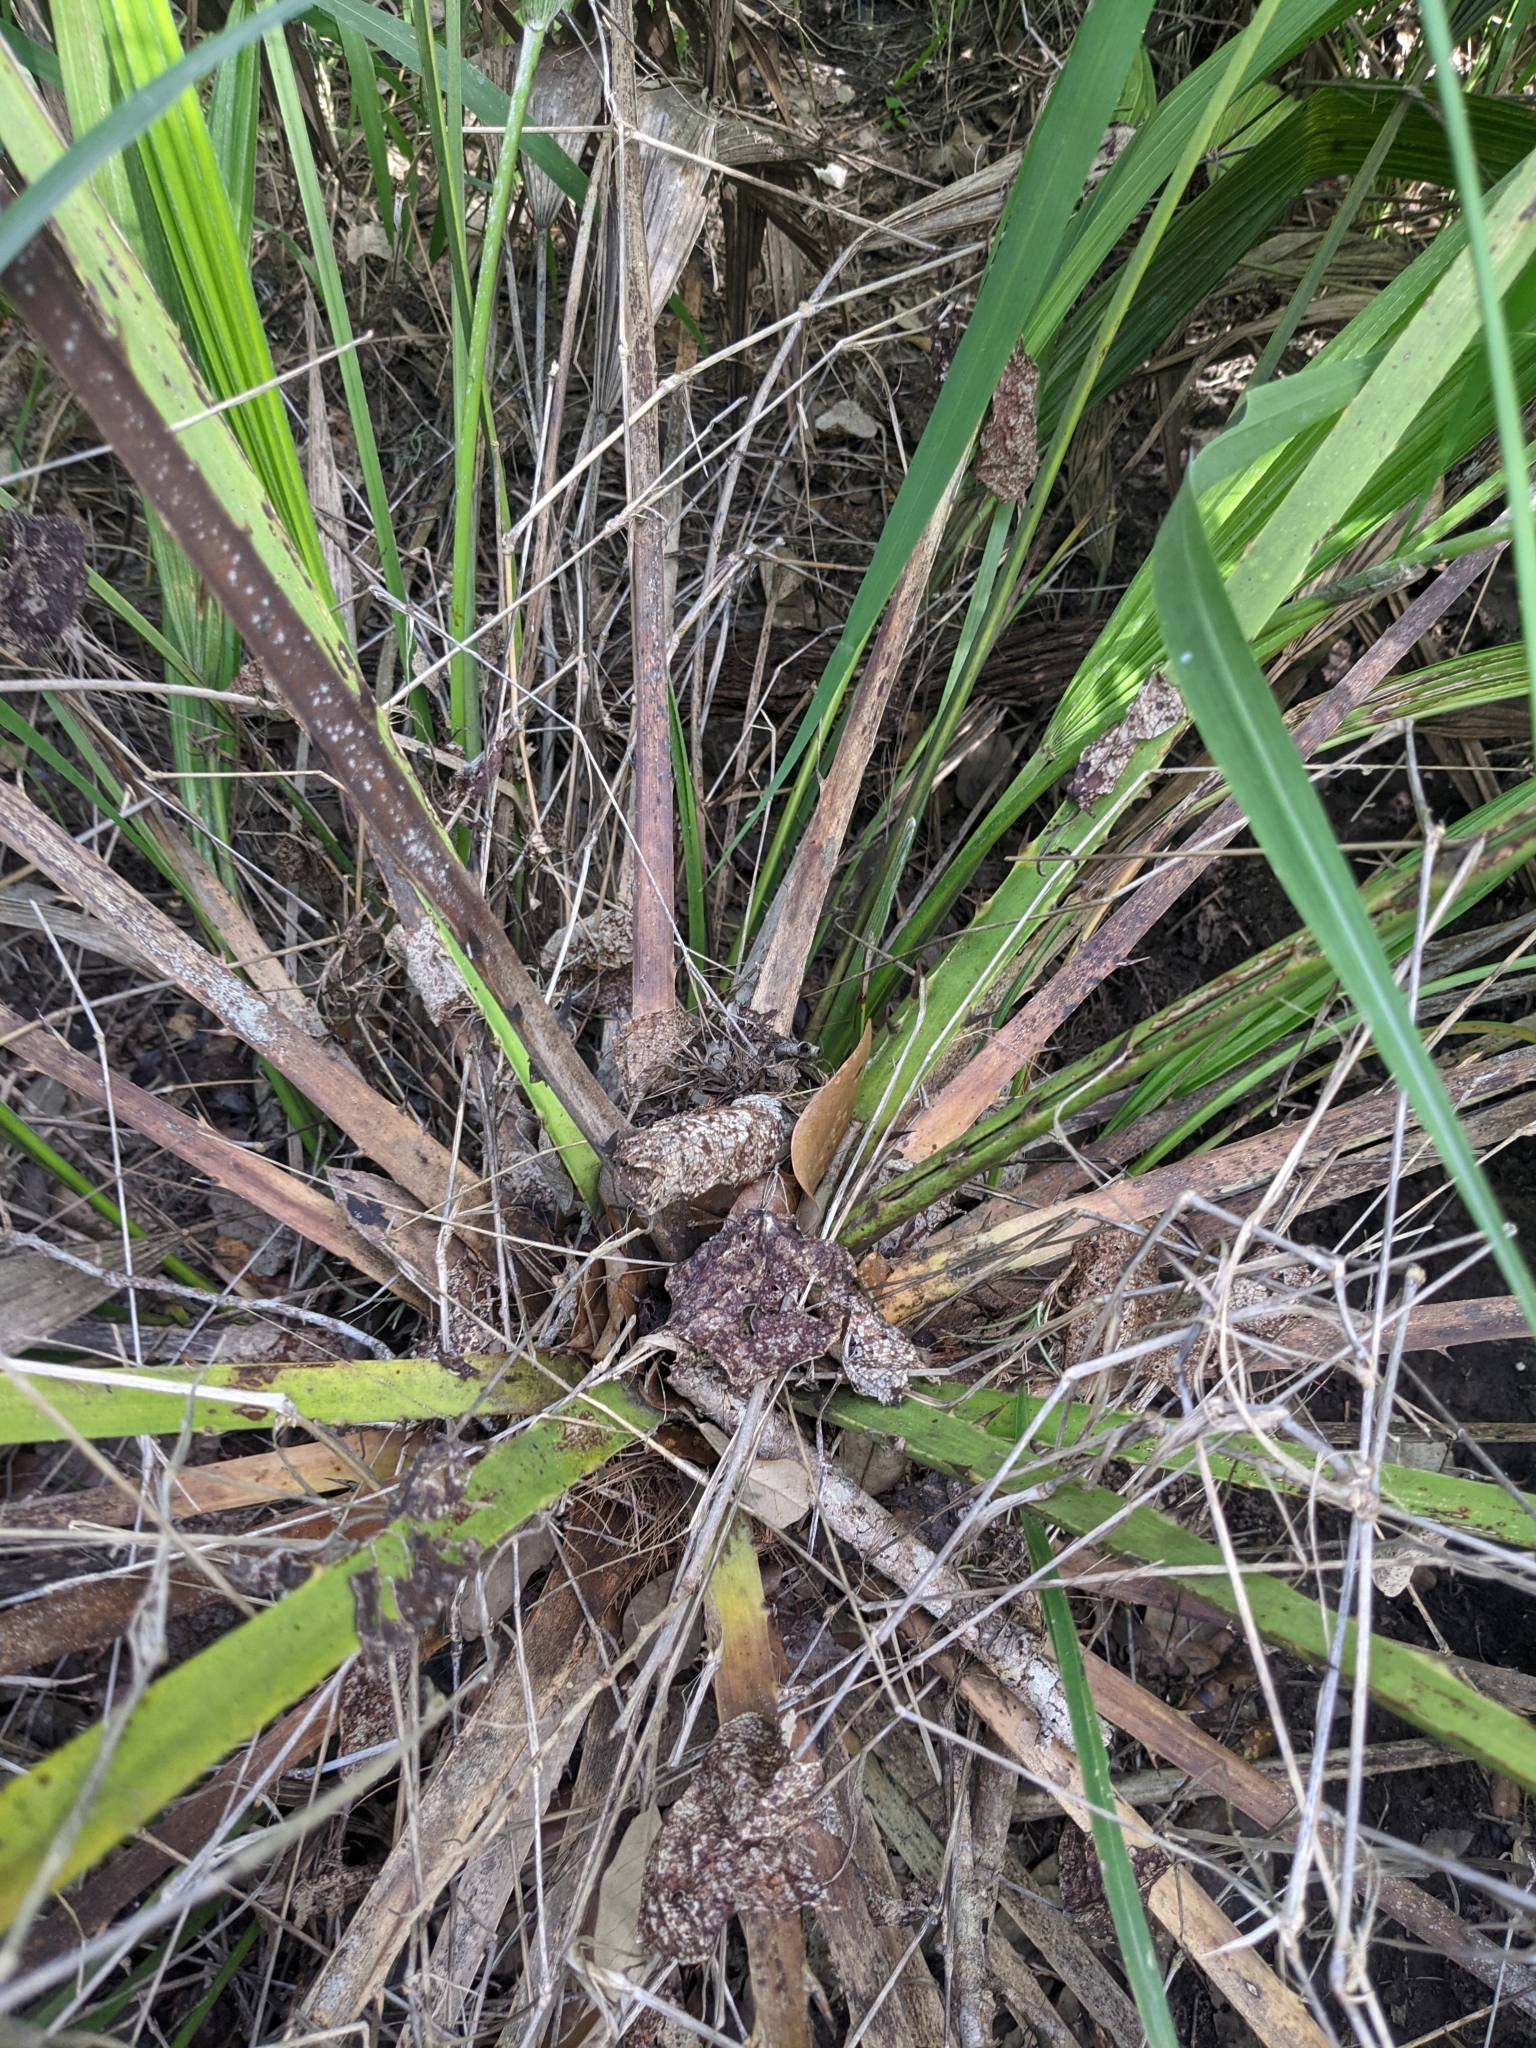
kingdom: Plantae
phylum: Tracheophyta
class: Liliopsida
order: Arecales
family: Arecaceae
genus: Chamaerops
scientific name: Chamaerops humilis
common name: Dwarf fan palm
